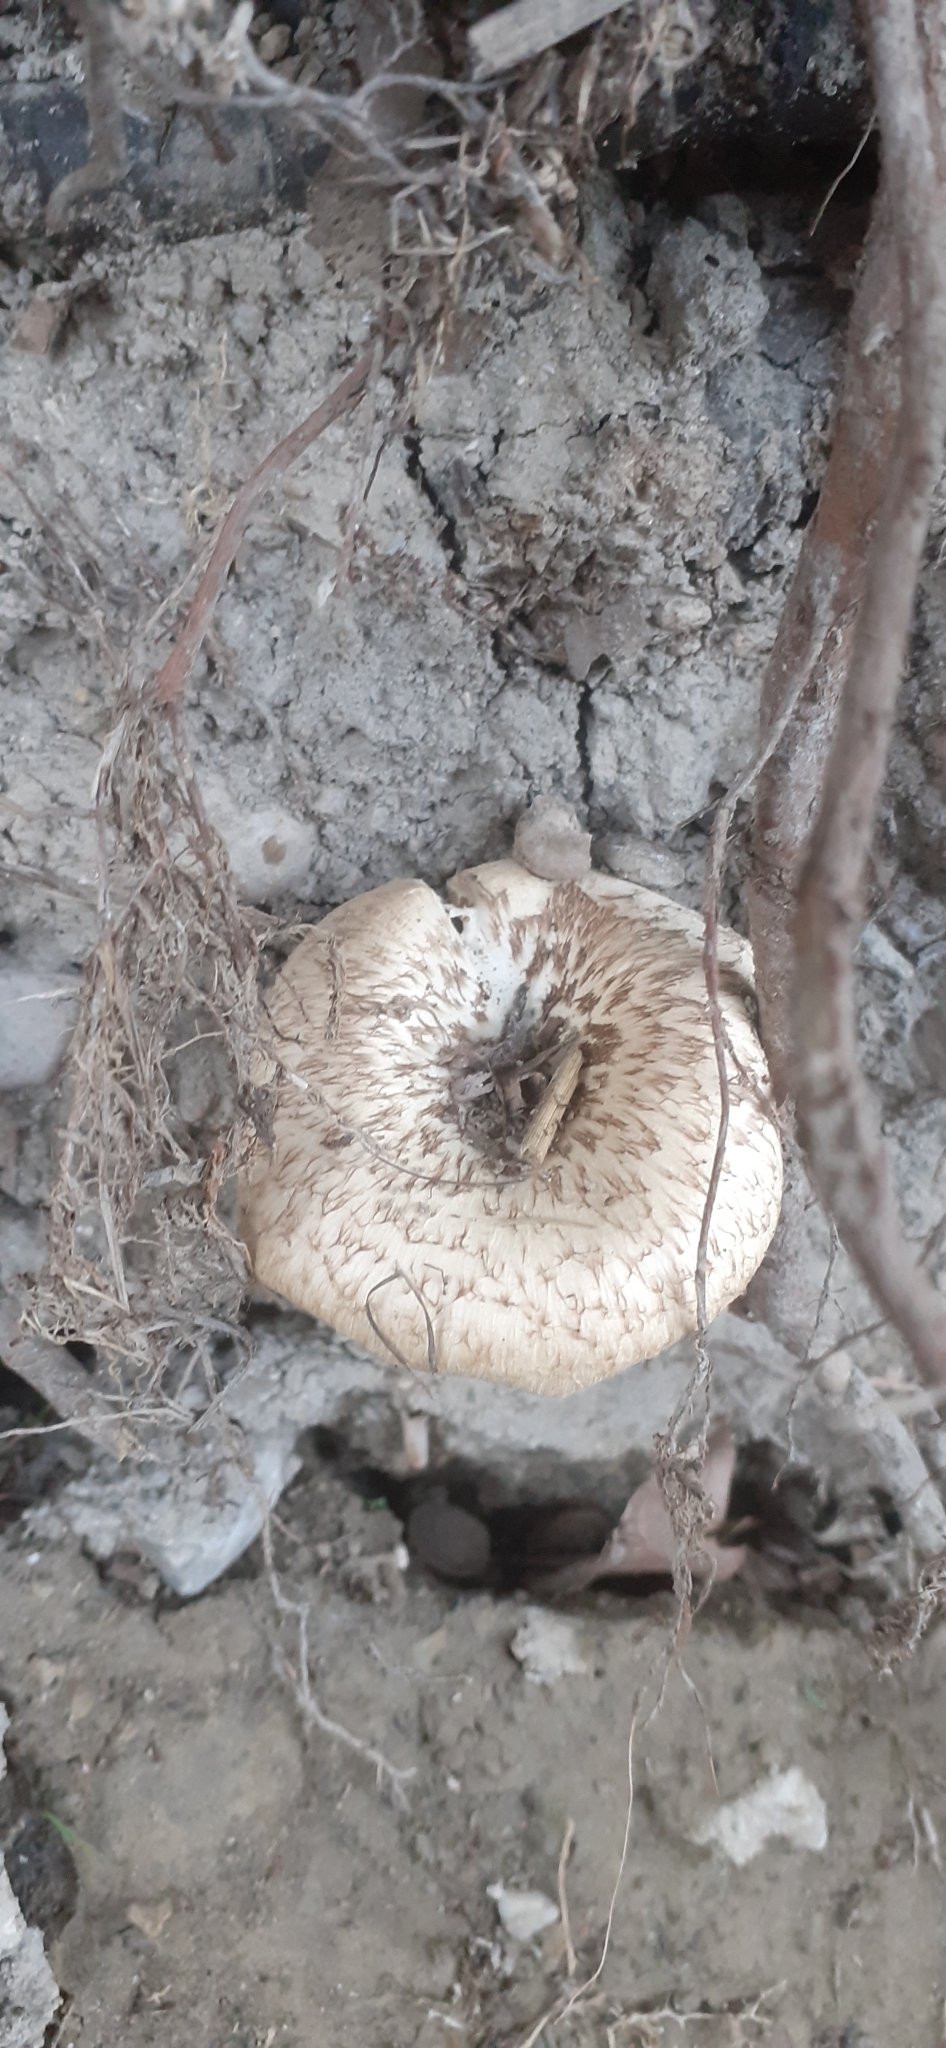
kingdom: Fungi
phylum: Basidiomycota
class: Agaricomycetes
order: Polyporales
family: Polyporaceae
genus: Lentinus
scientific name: Lentinus tigrinus
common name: Tiger sawgill
